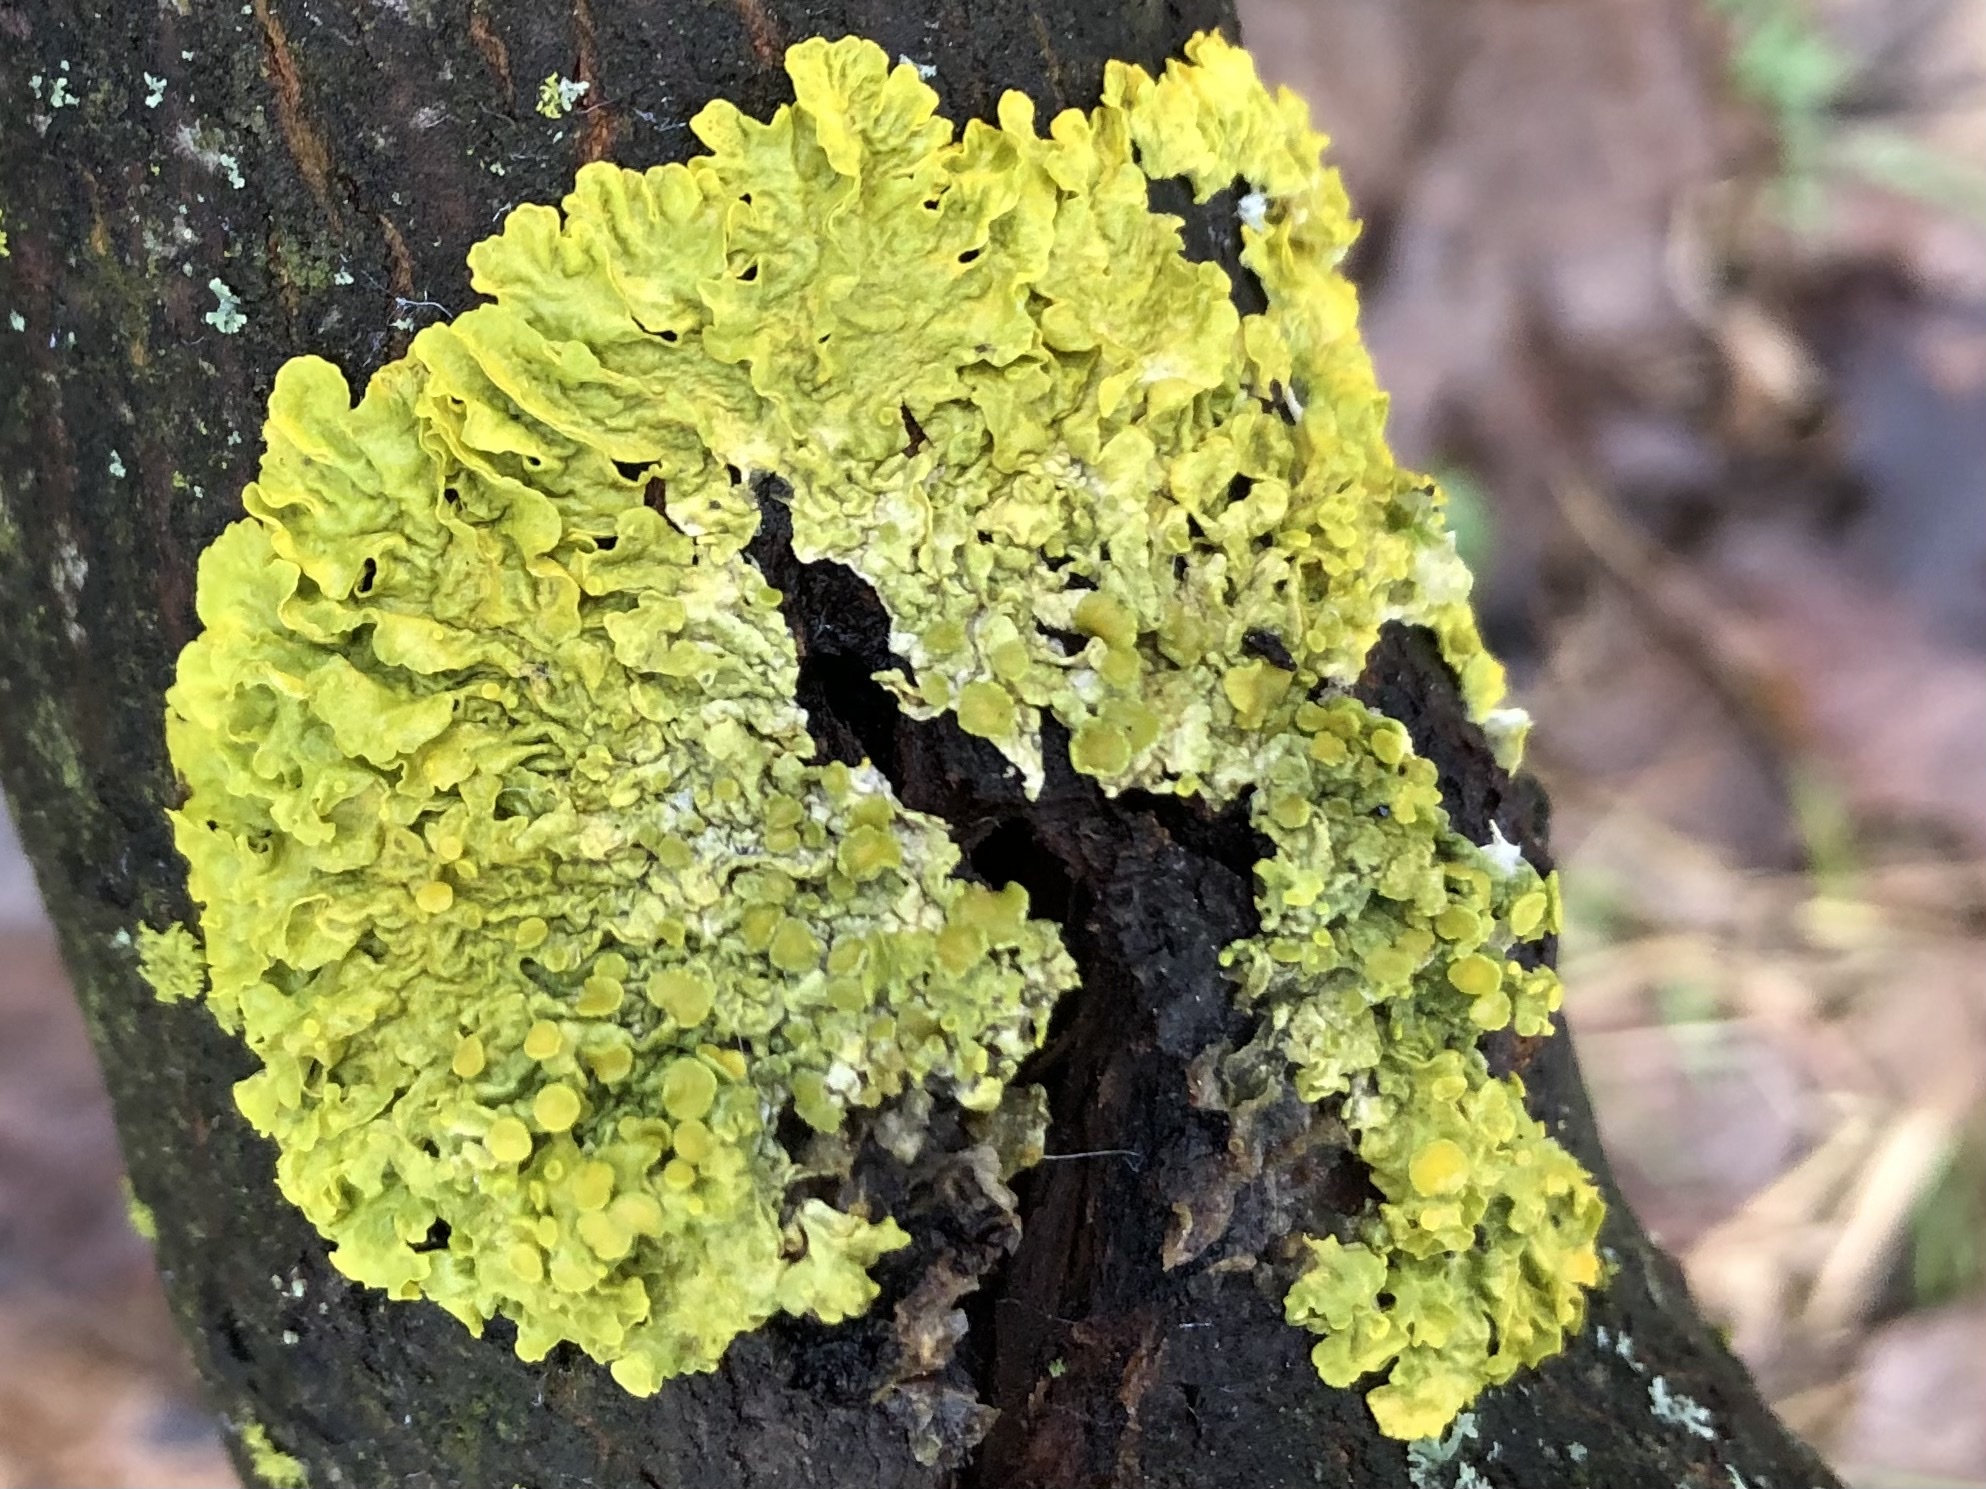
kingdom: Fungi
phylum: Ascomycota
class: Lecanoromycetes
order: Teloschistales
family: Teloschistaceae
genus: Xanthoria
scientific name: Xanthoria parietina
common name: Common orange lichen
